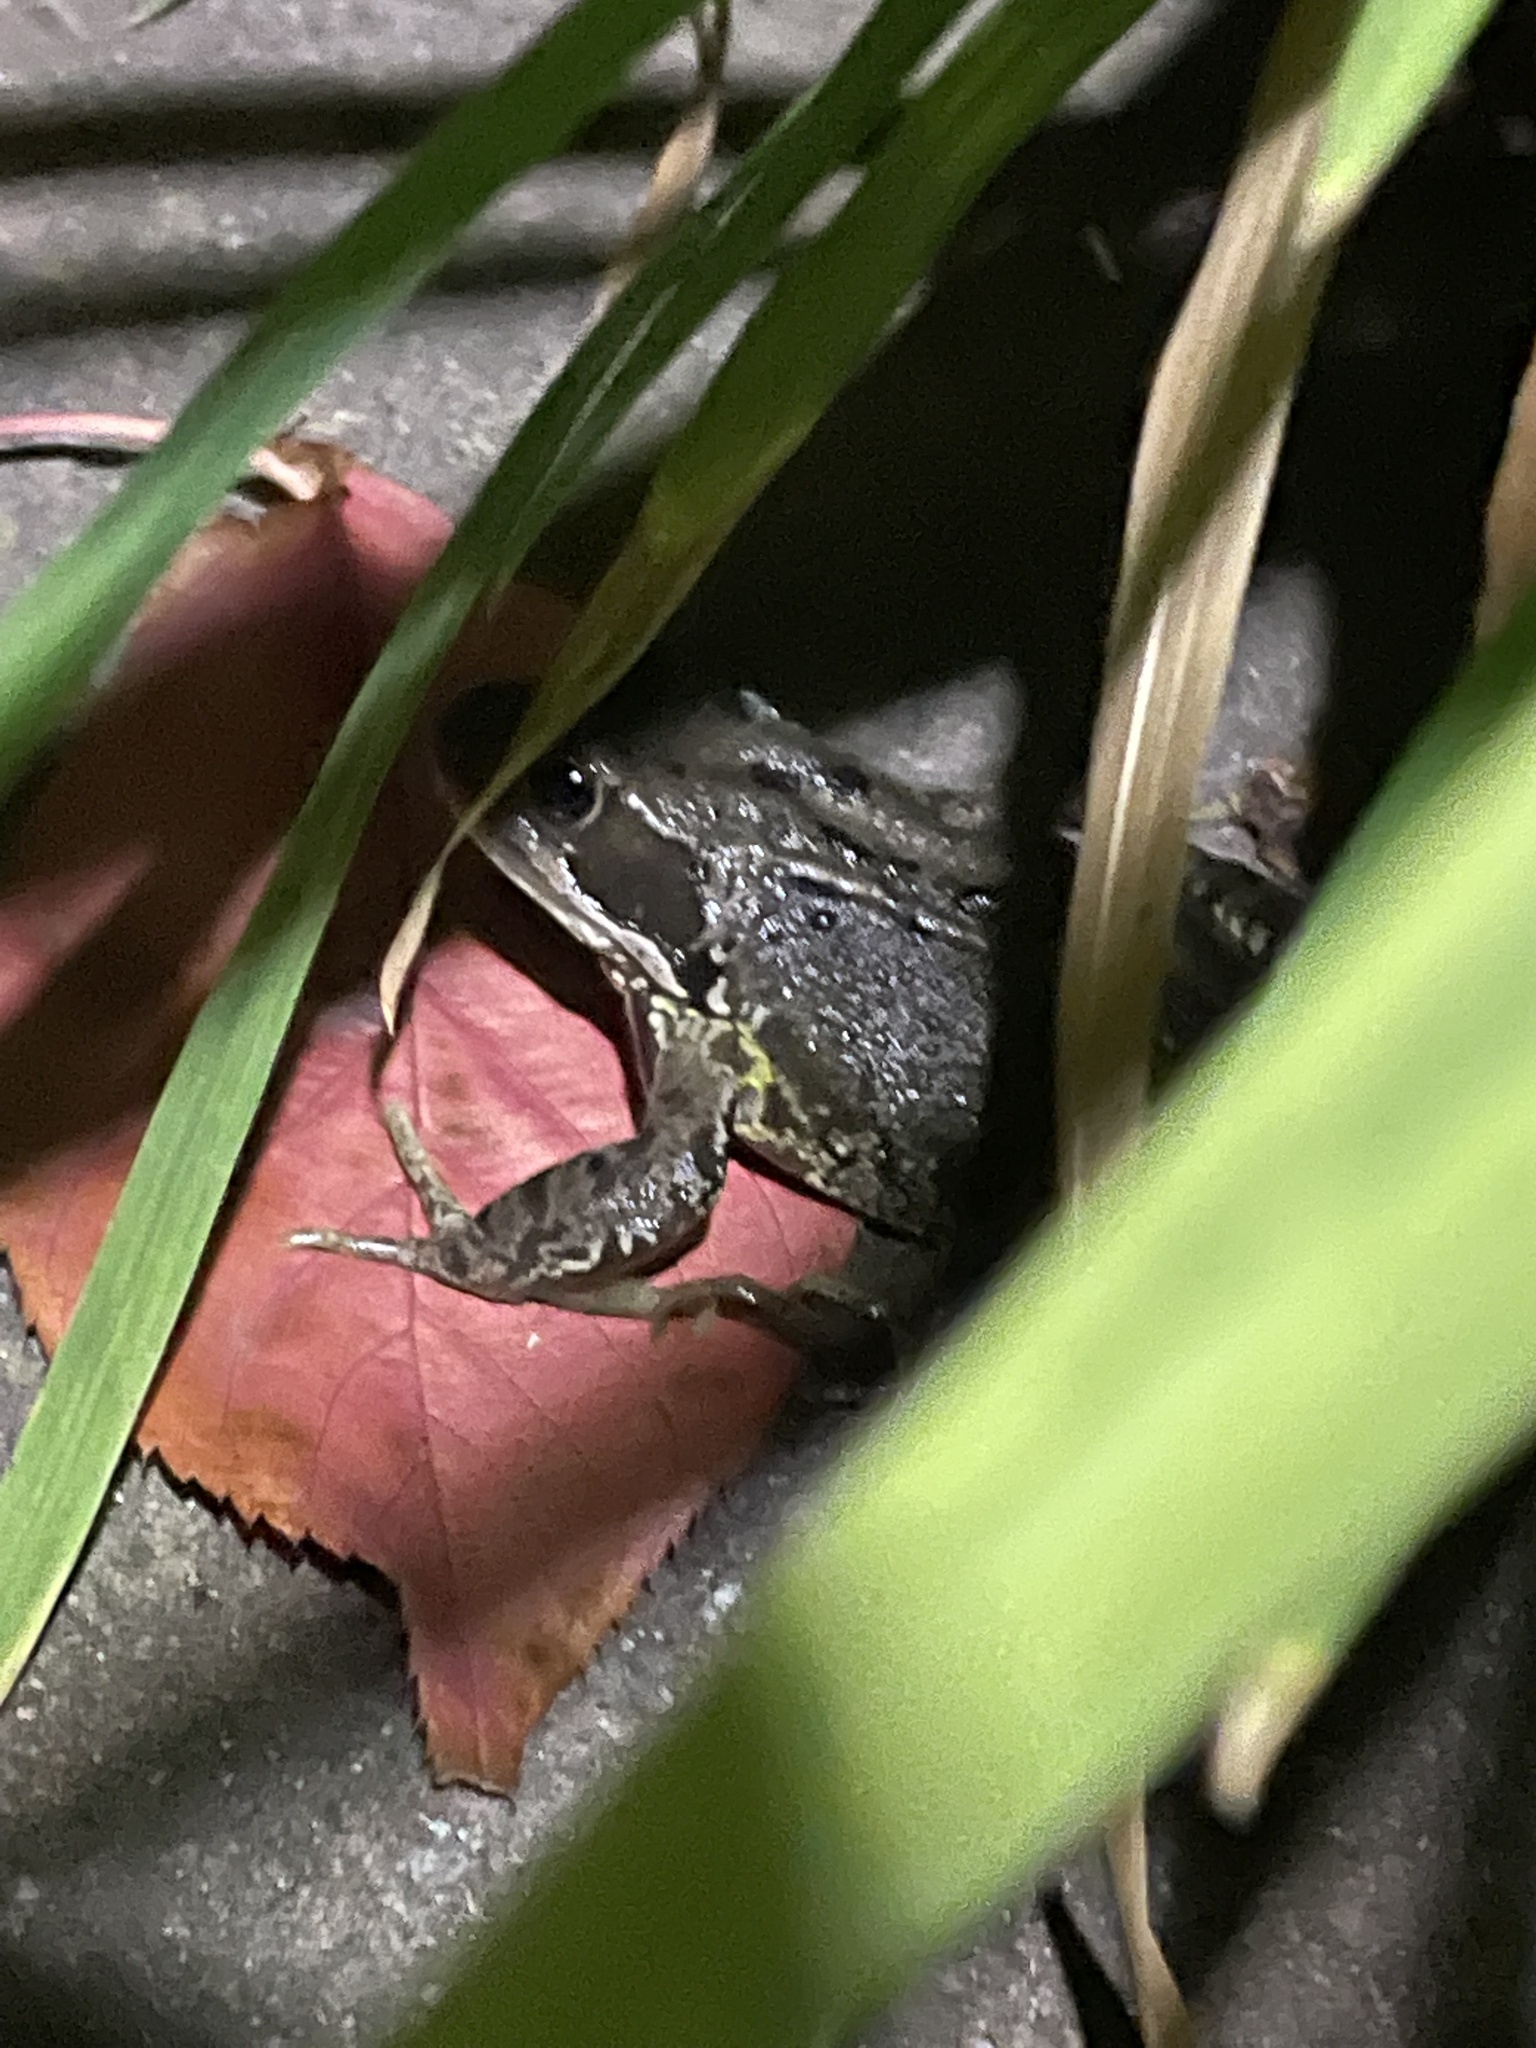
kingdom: Animalia
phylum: Chordata
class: Amphibia
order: Anura
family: Ranidae
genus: Rana
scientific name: Rana temporaria
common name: Common frog
